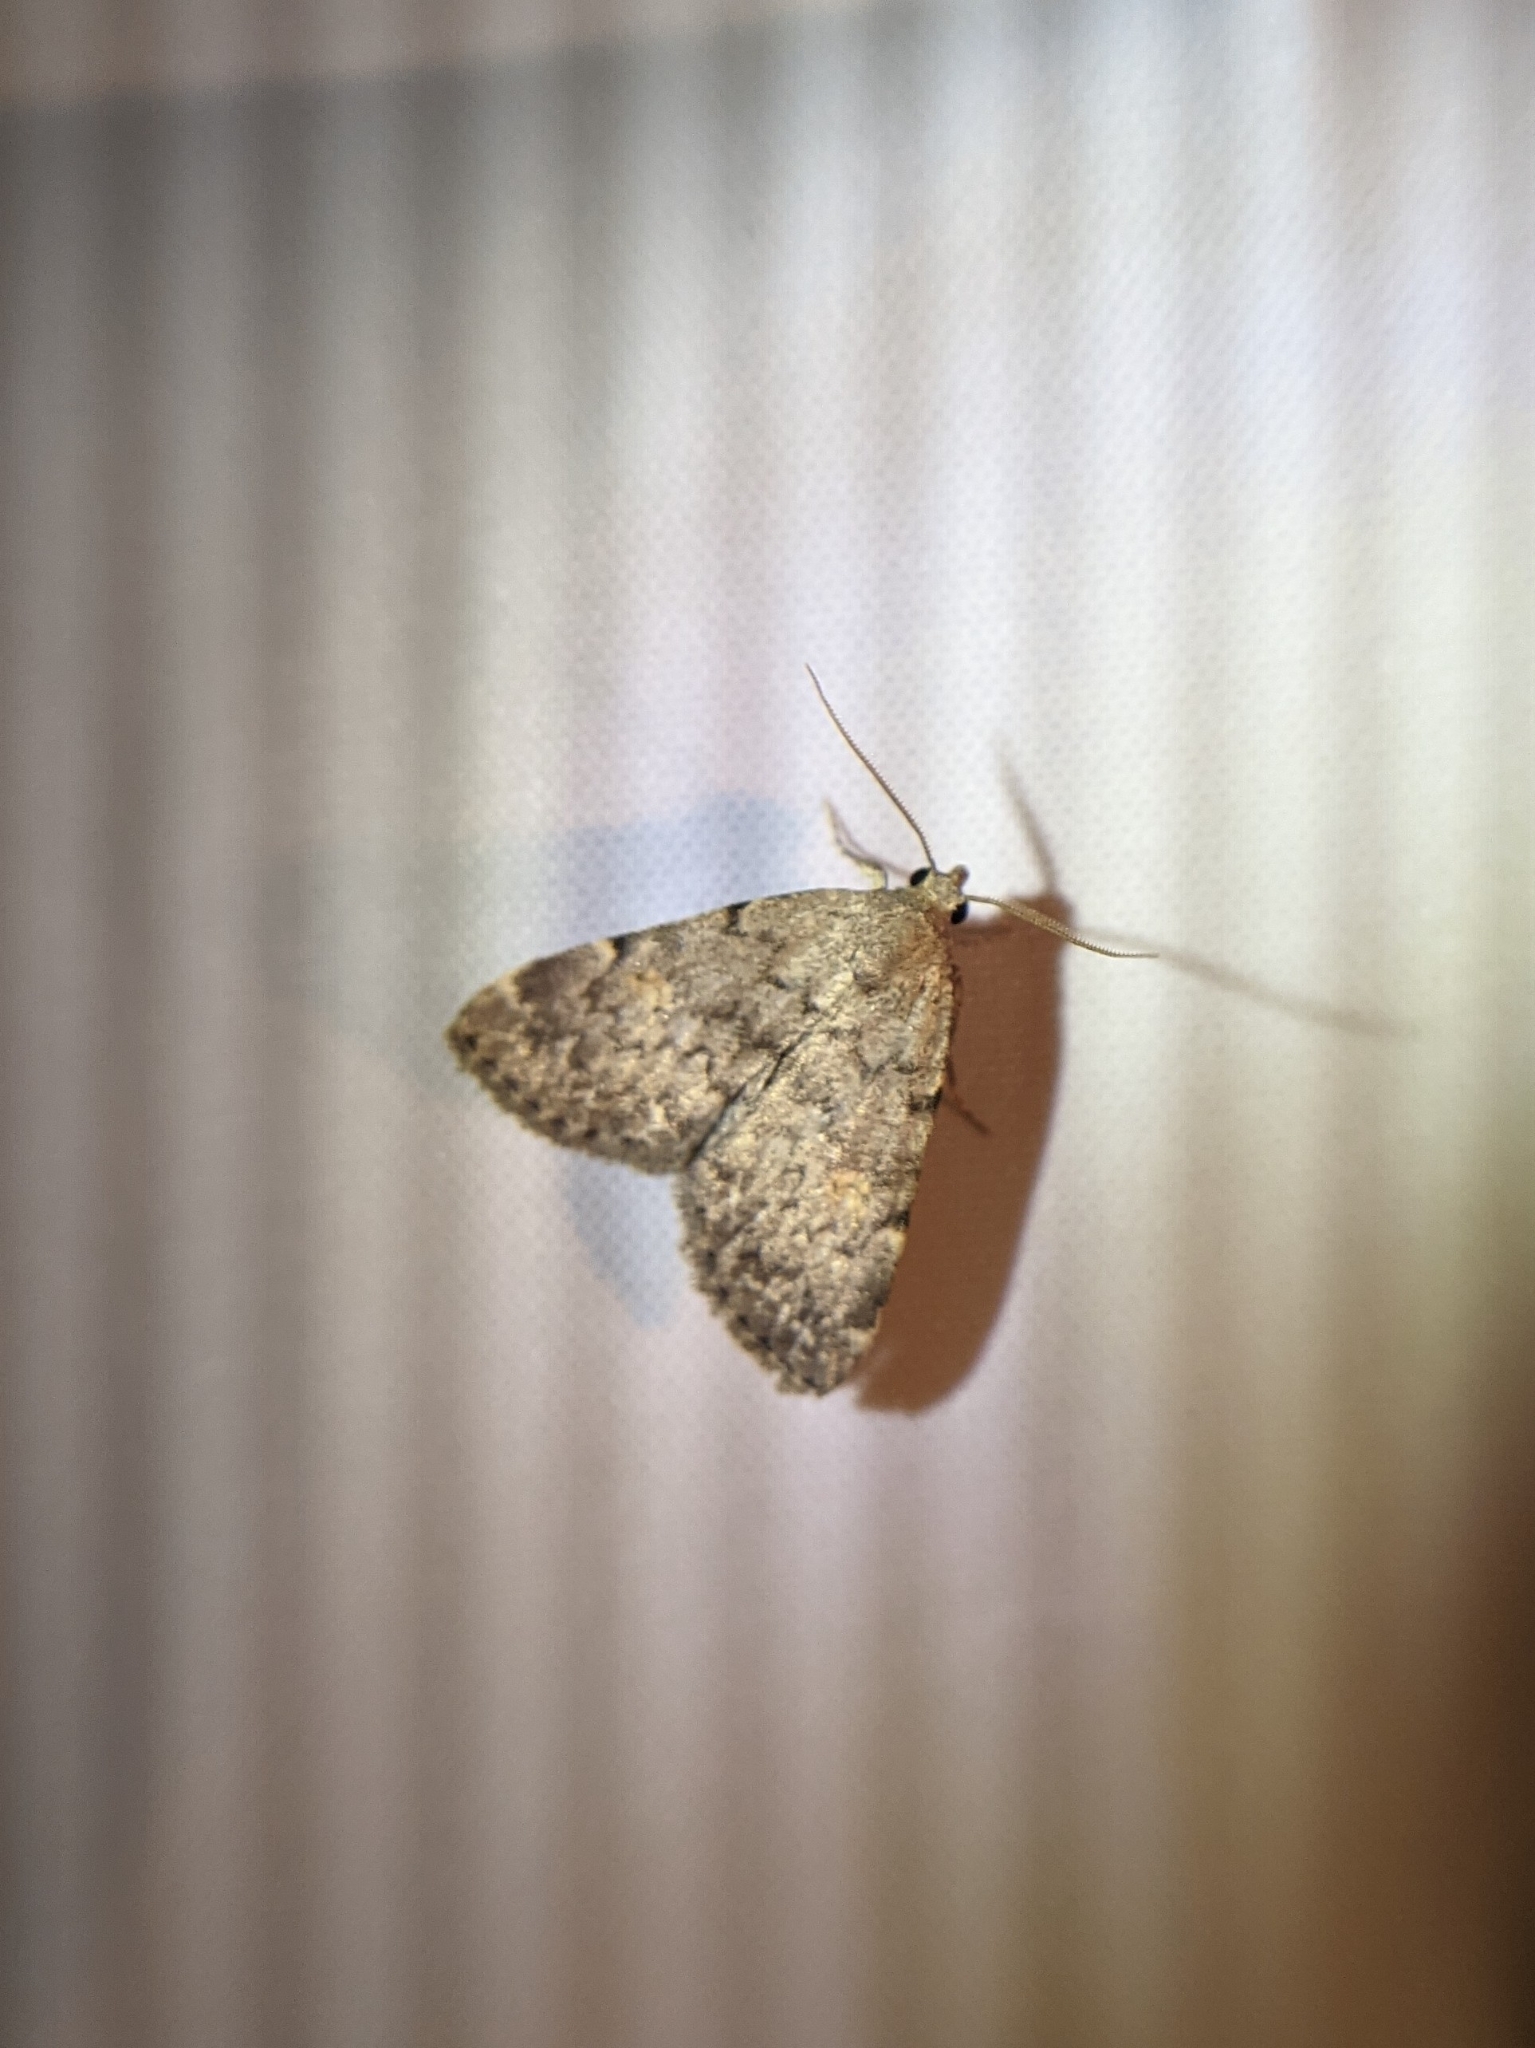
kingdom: Animalia
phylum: Arthropoda
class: Insecta
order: Lepidoptera
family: Erebidae
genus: Idia
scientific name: Idia aemula
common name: Common idia moth
